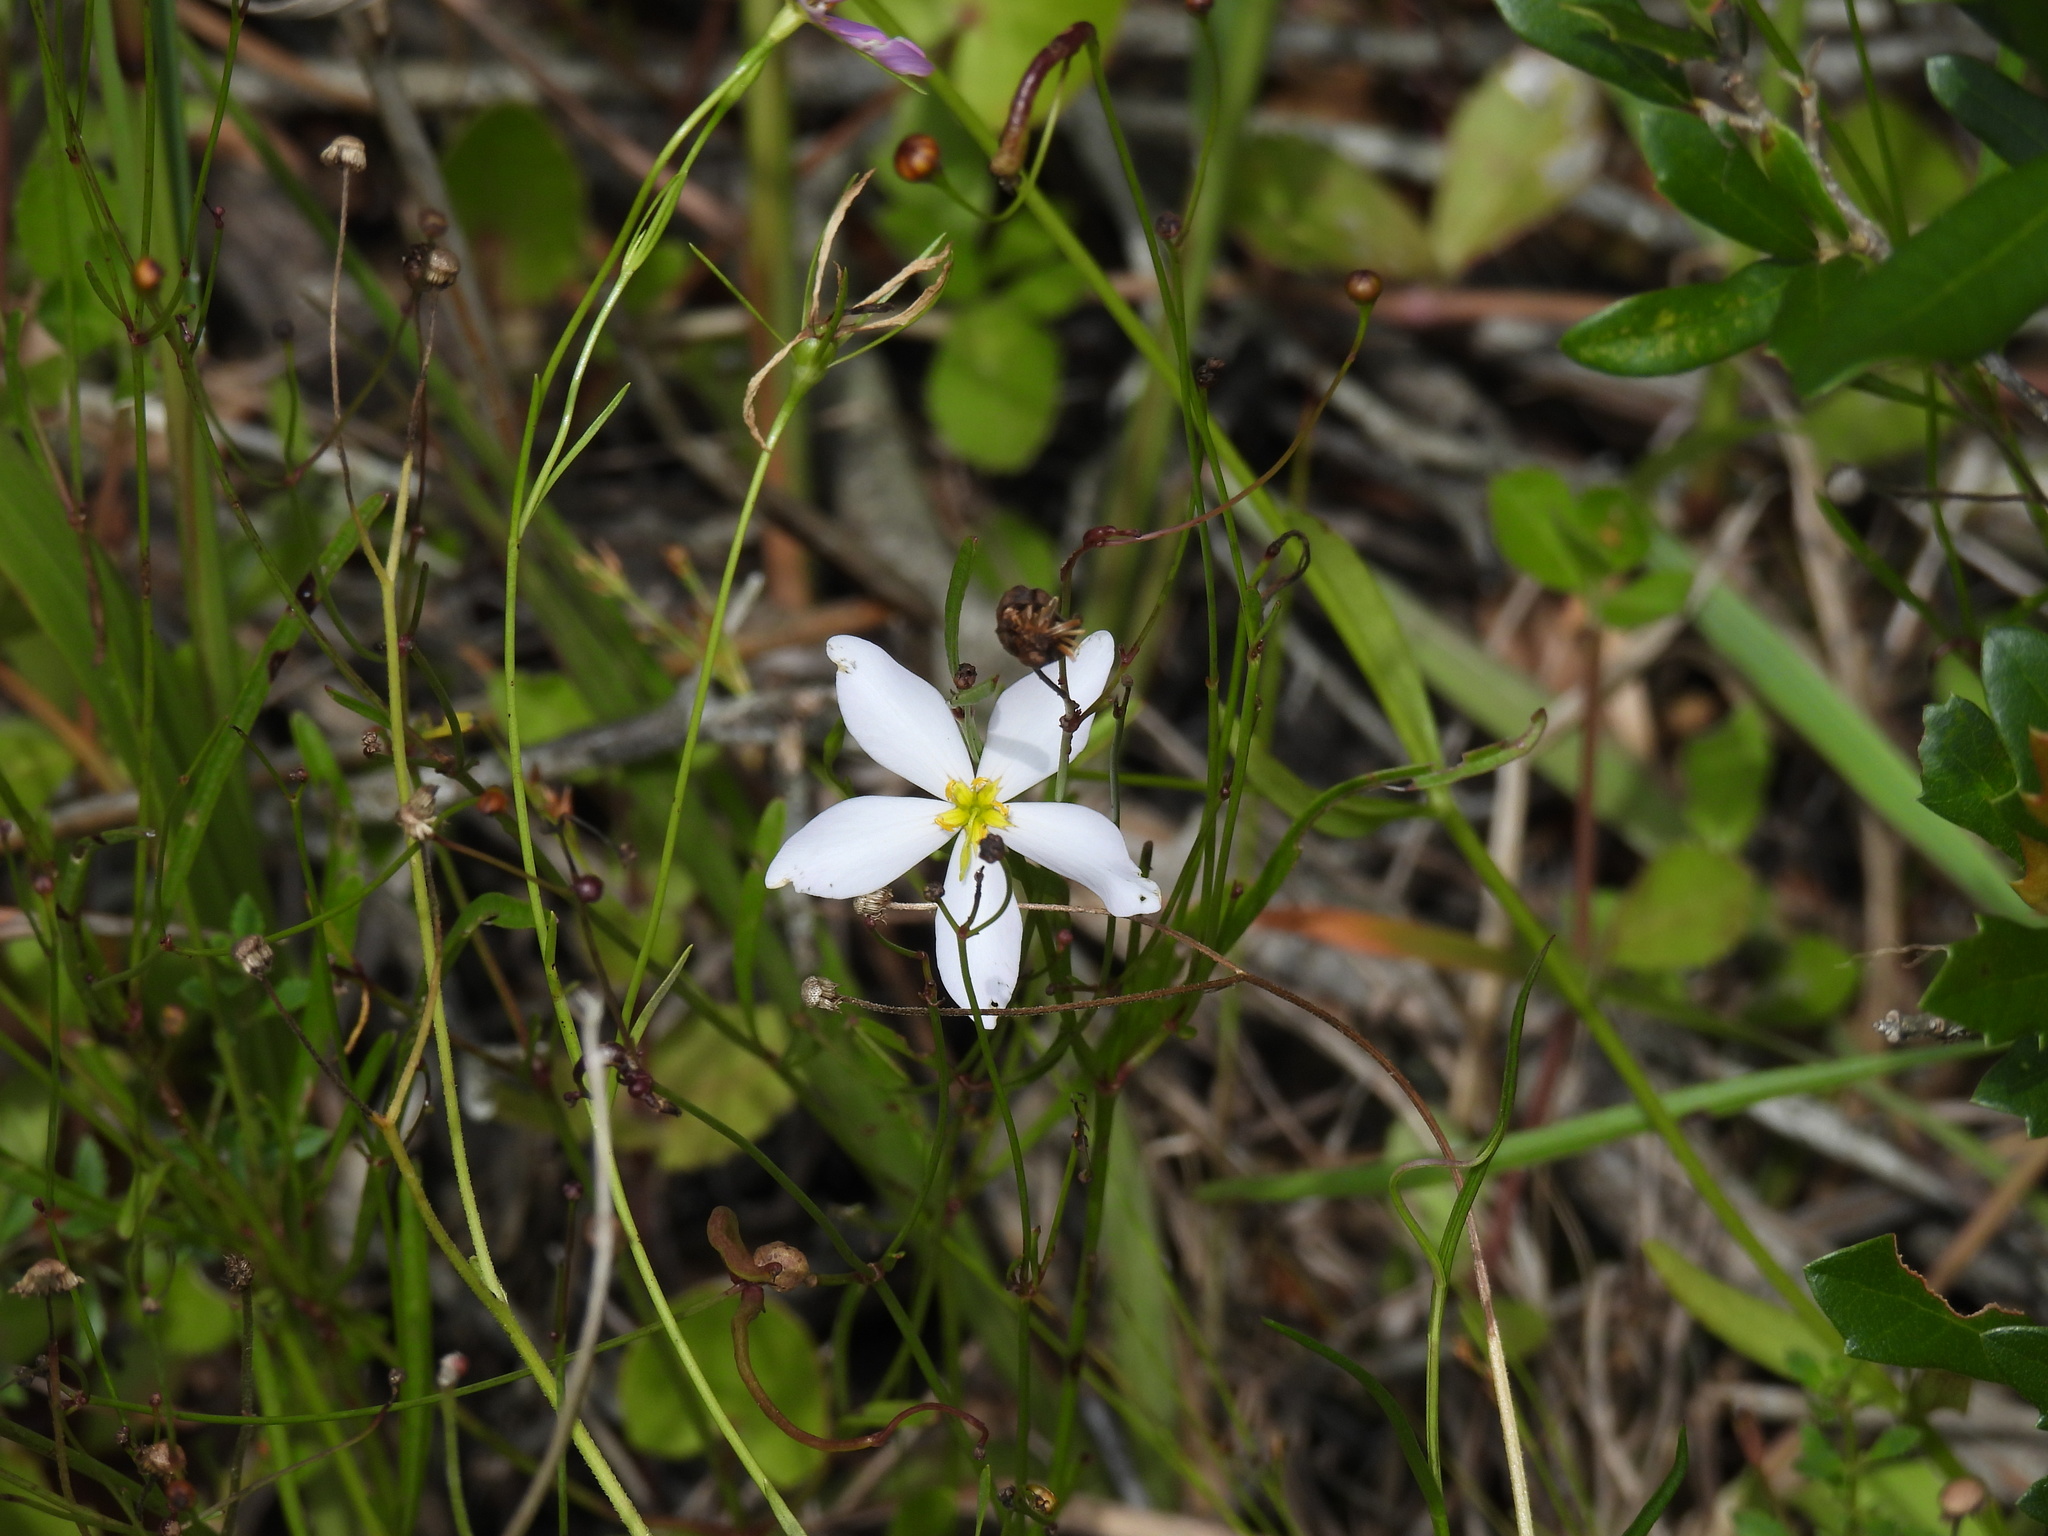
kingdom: Plantae
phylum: Tracheophyta
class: Magnoliopsida
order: Gentianales
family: Gentianaceae
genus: Sabatia
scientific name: Sabatia brevifolia
